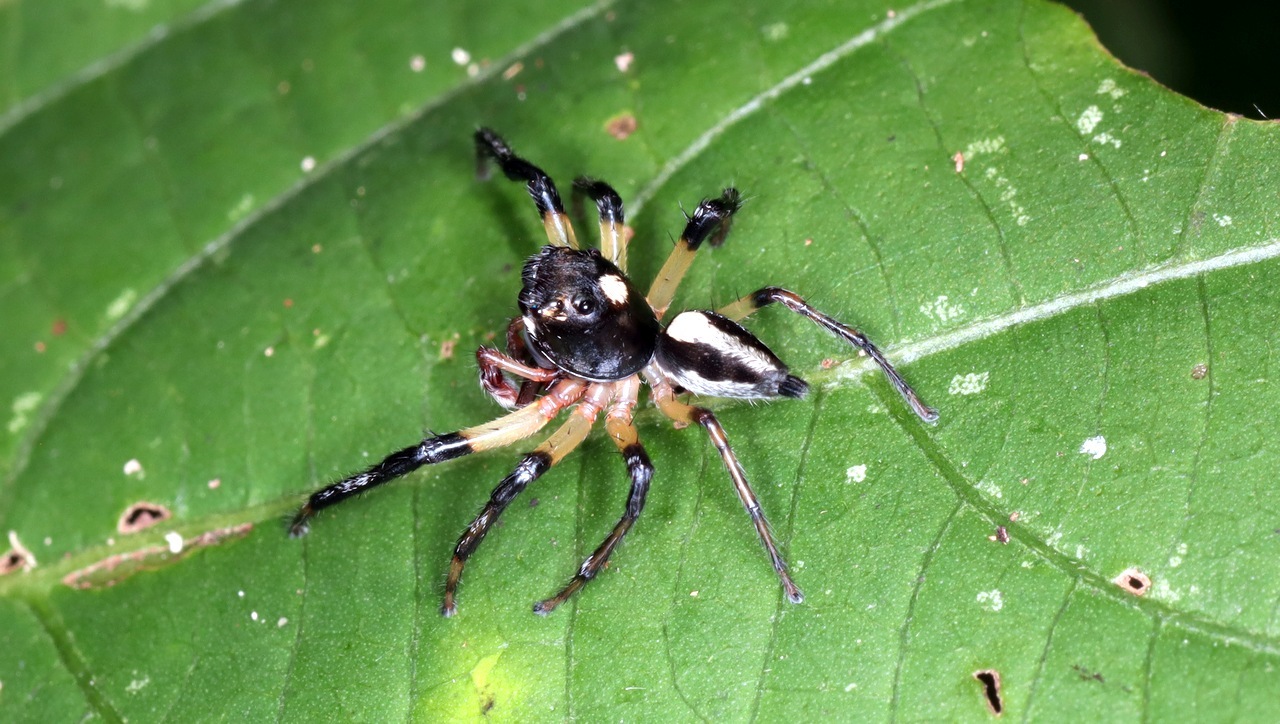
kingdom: Animalia
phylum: Arthropoda
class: Arachnida
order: Araneae
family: Salticidae
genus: Amycus
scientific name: Amycus flavicomis
